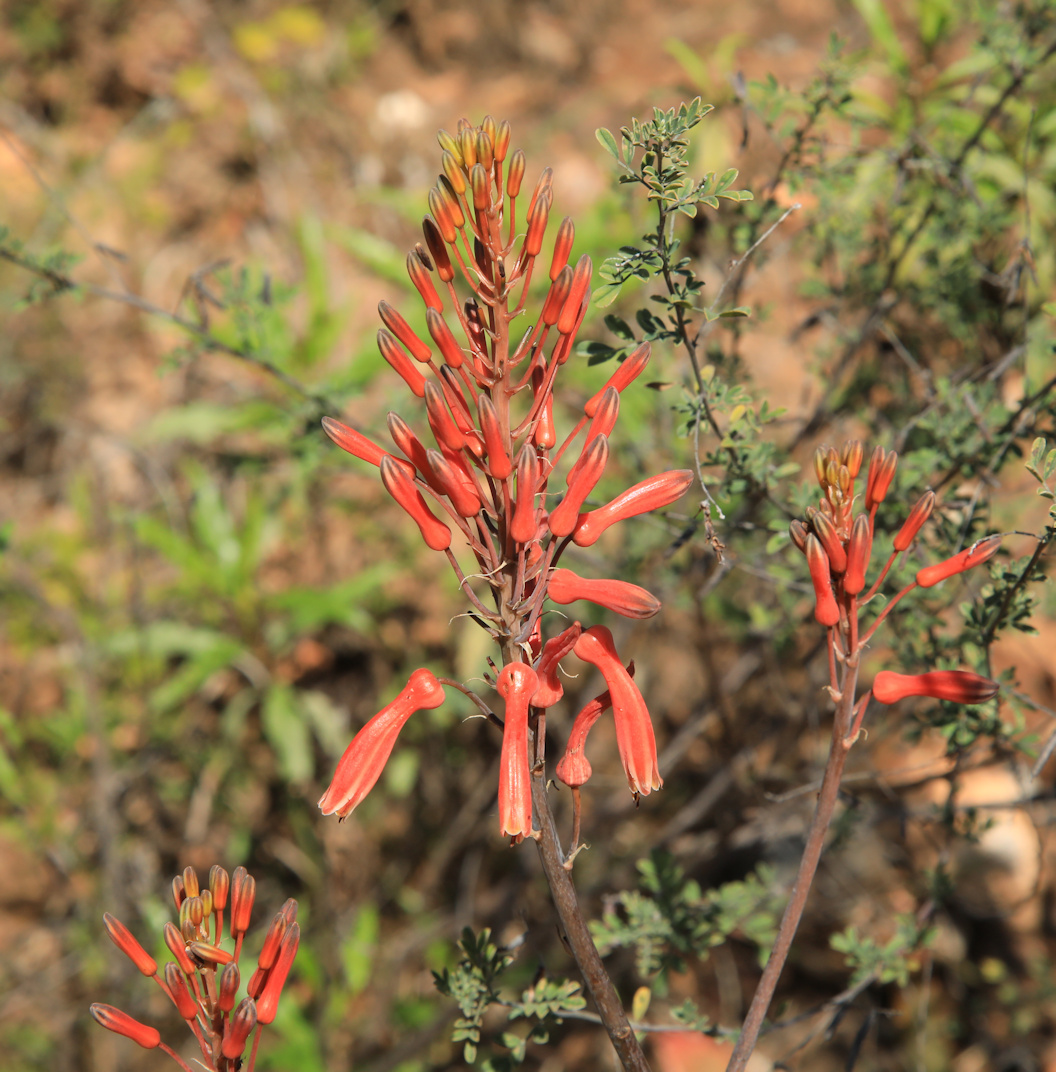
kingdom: Plantae
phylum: Tracheophyta
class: Liliopsida
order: Asparagales
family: Asphodelaceae
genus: Aloe
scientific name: Aloe branddraaiensis
